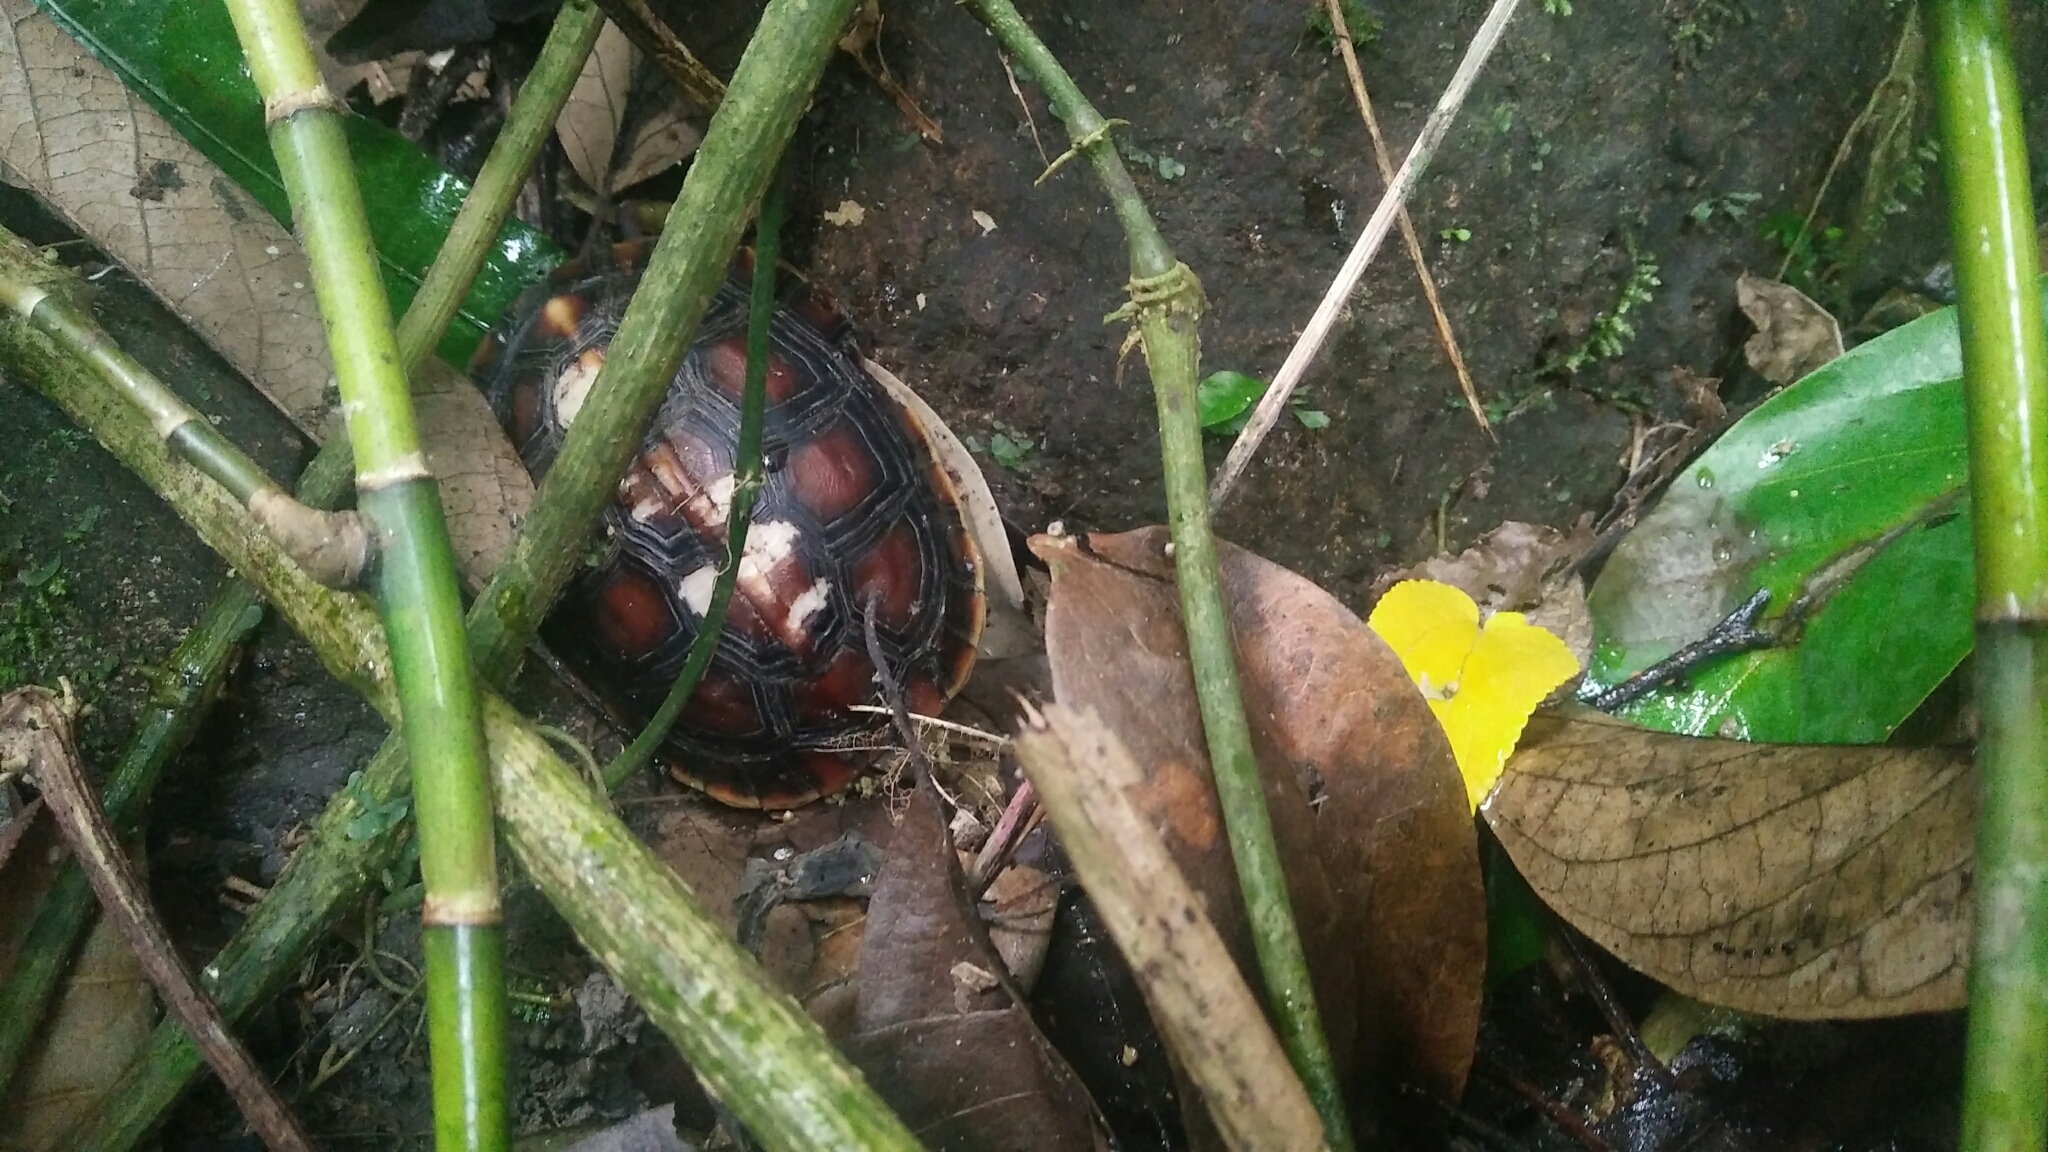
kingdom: Animalia
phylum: Chordata
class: Testudines
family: Geoemydidae
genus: Cuora
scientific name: Cuora flavomarginata
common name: Yellow-margined box turtle
